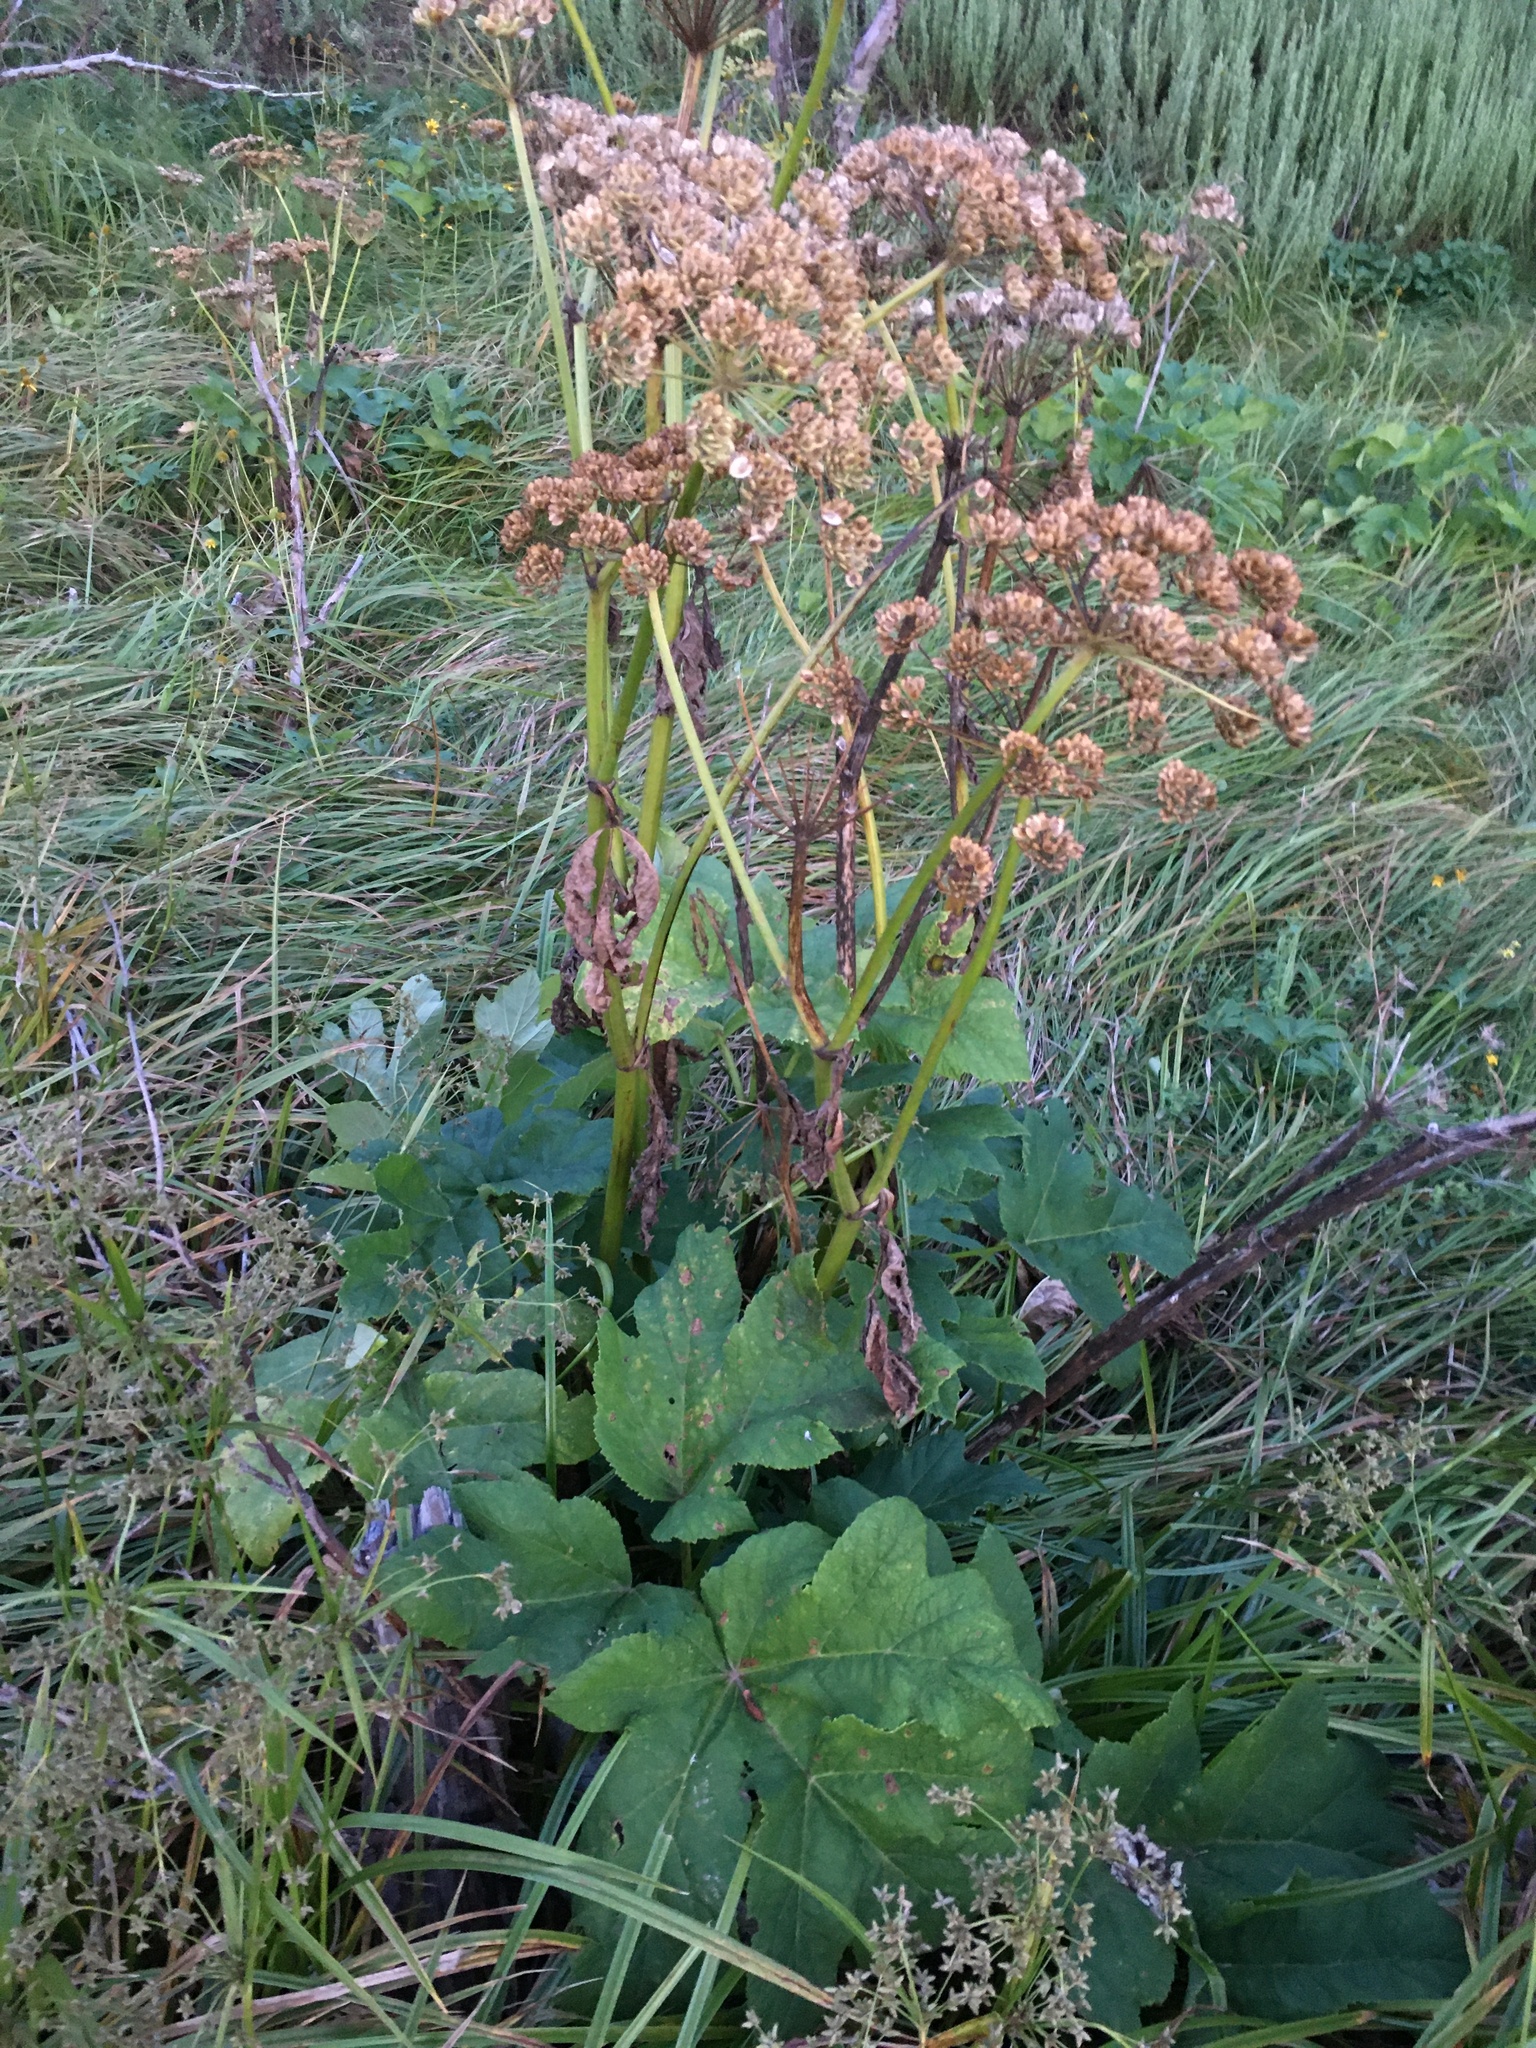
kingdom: Plantae
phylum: Tracheophyta
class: Magnoliopsida
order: Apiales
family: Apiaceae
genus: Heracleum
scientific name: Heracleum maximum
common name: American cow parsnip
